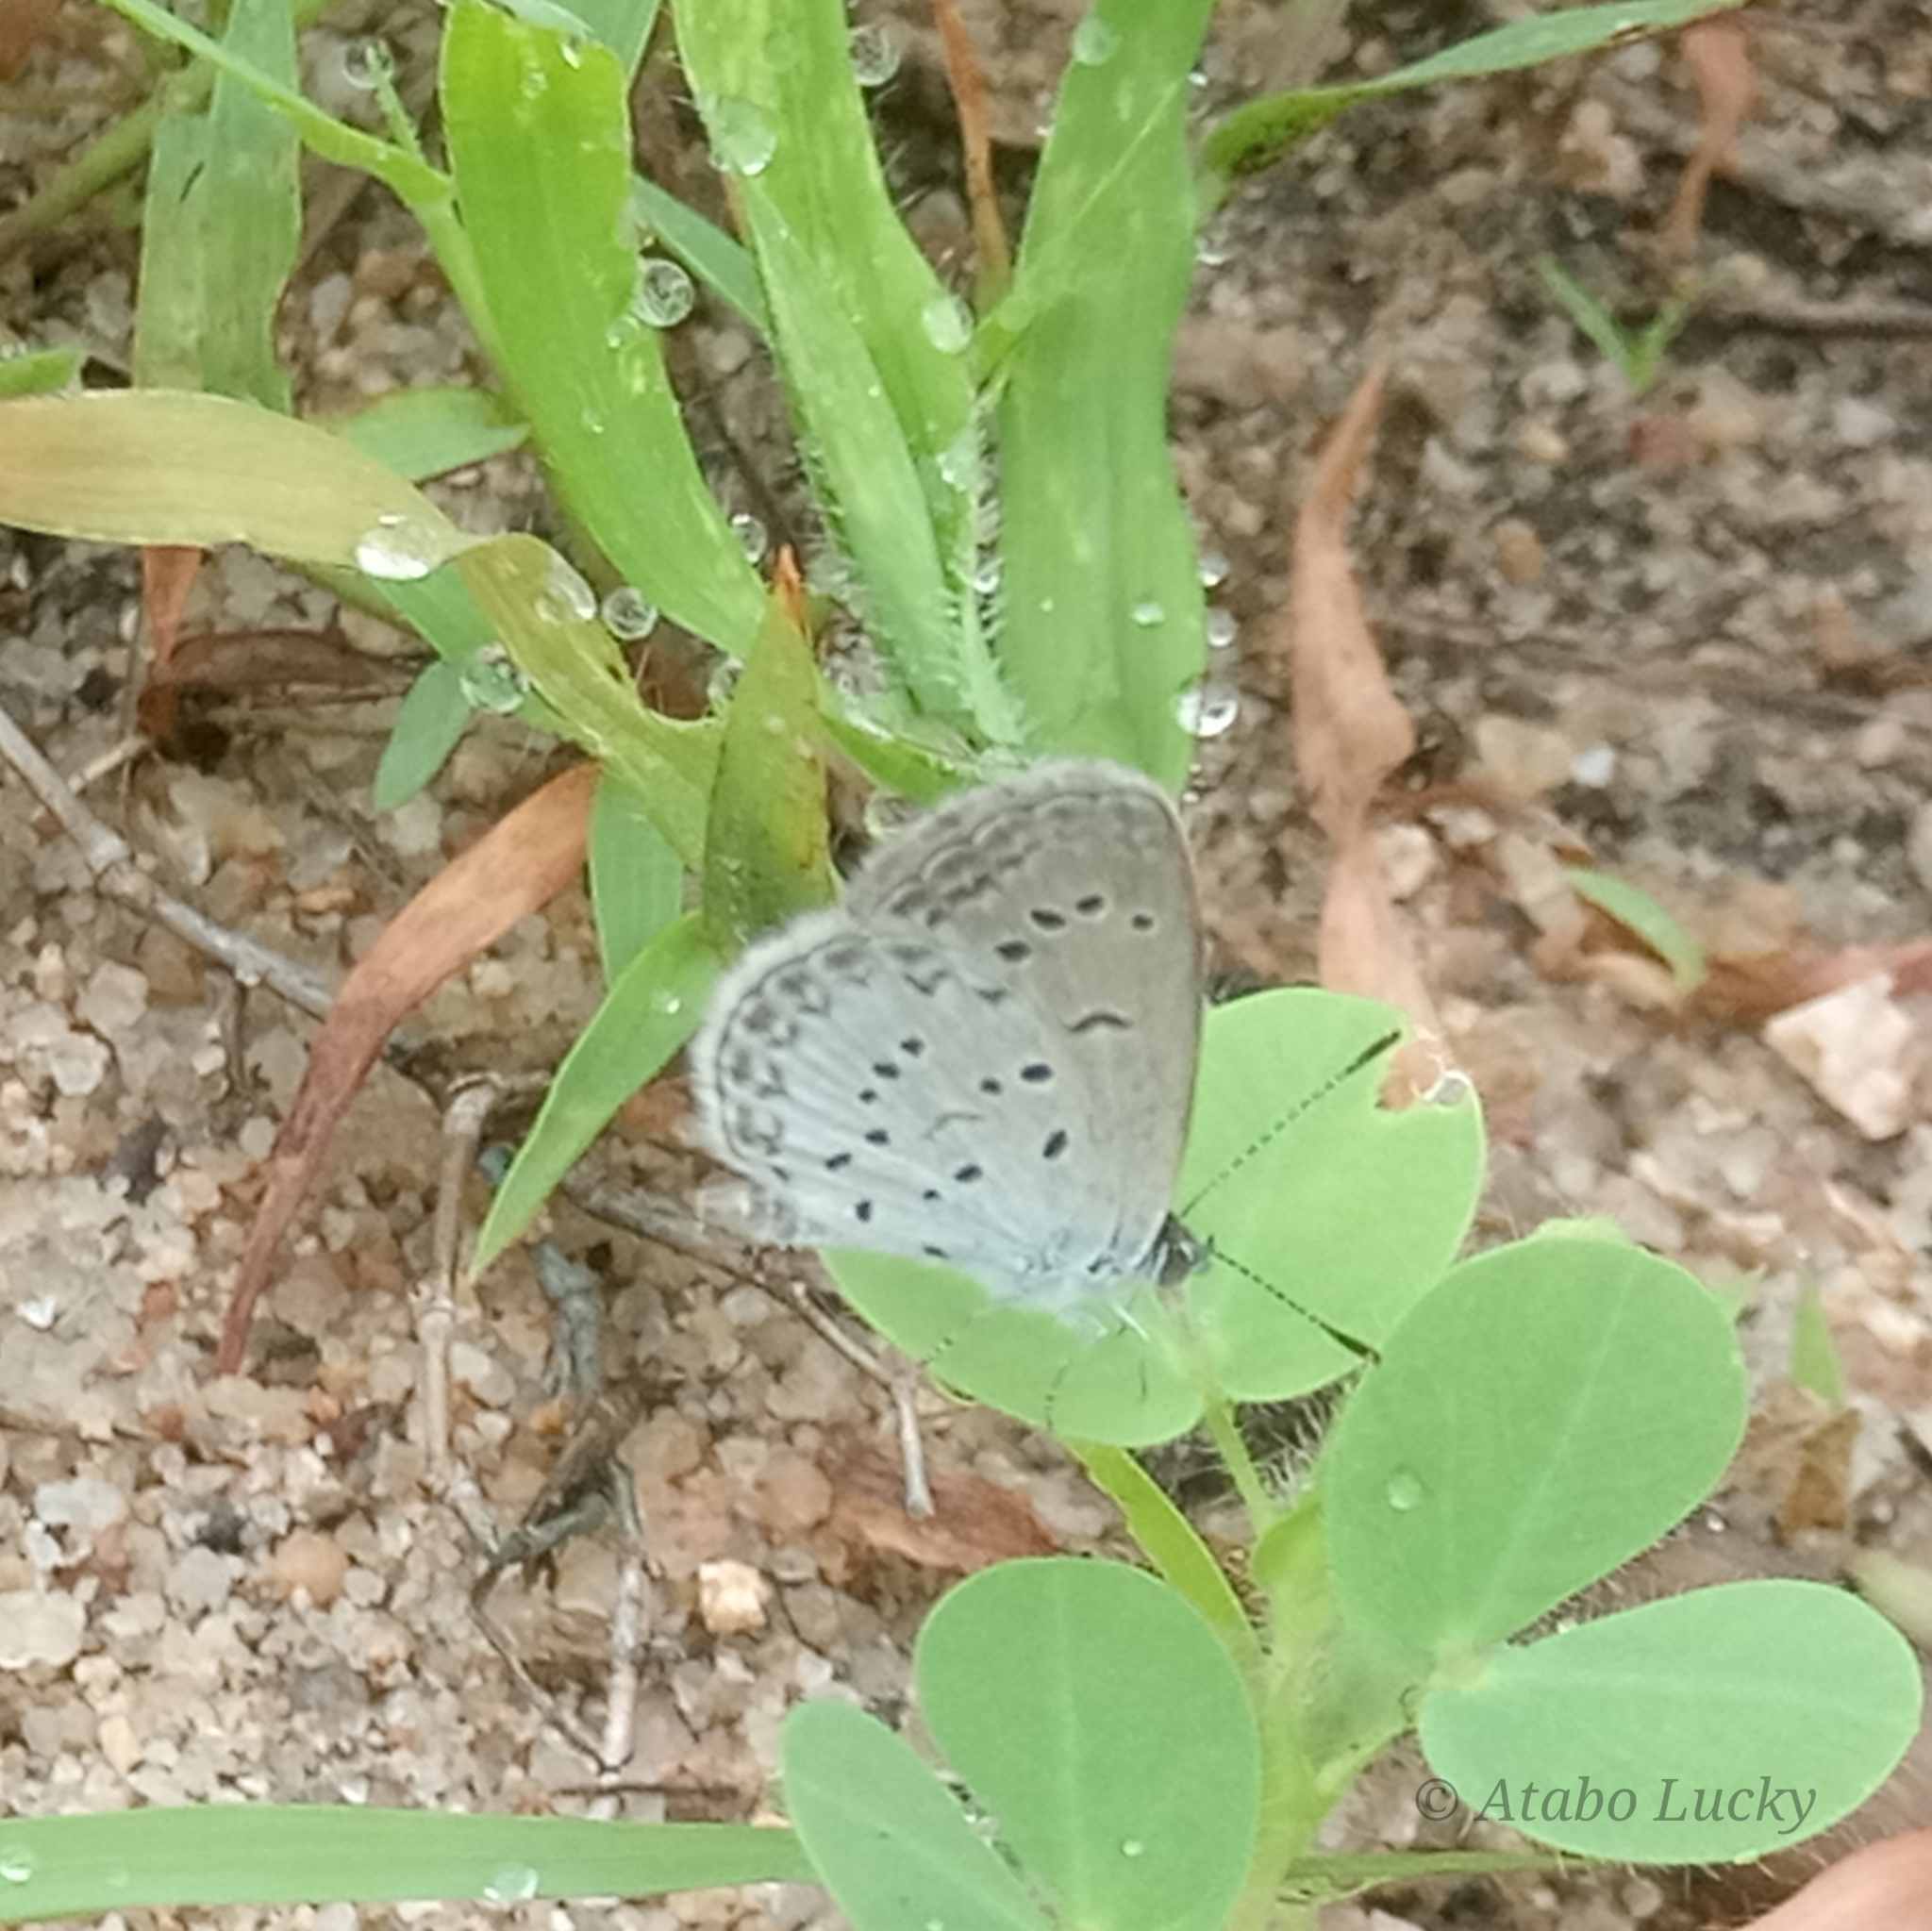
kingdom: Animalia
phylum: Arthropoda
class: Insecta
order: Lepidoptera
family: Lycaenidae
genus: Zizina
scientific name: Zizina antanossa
